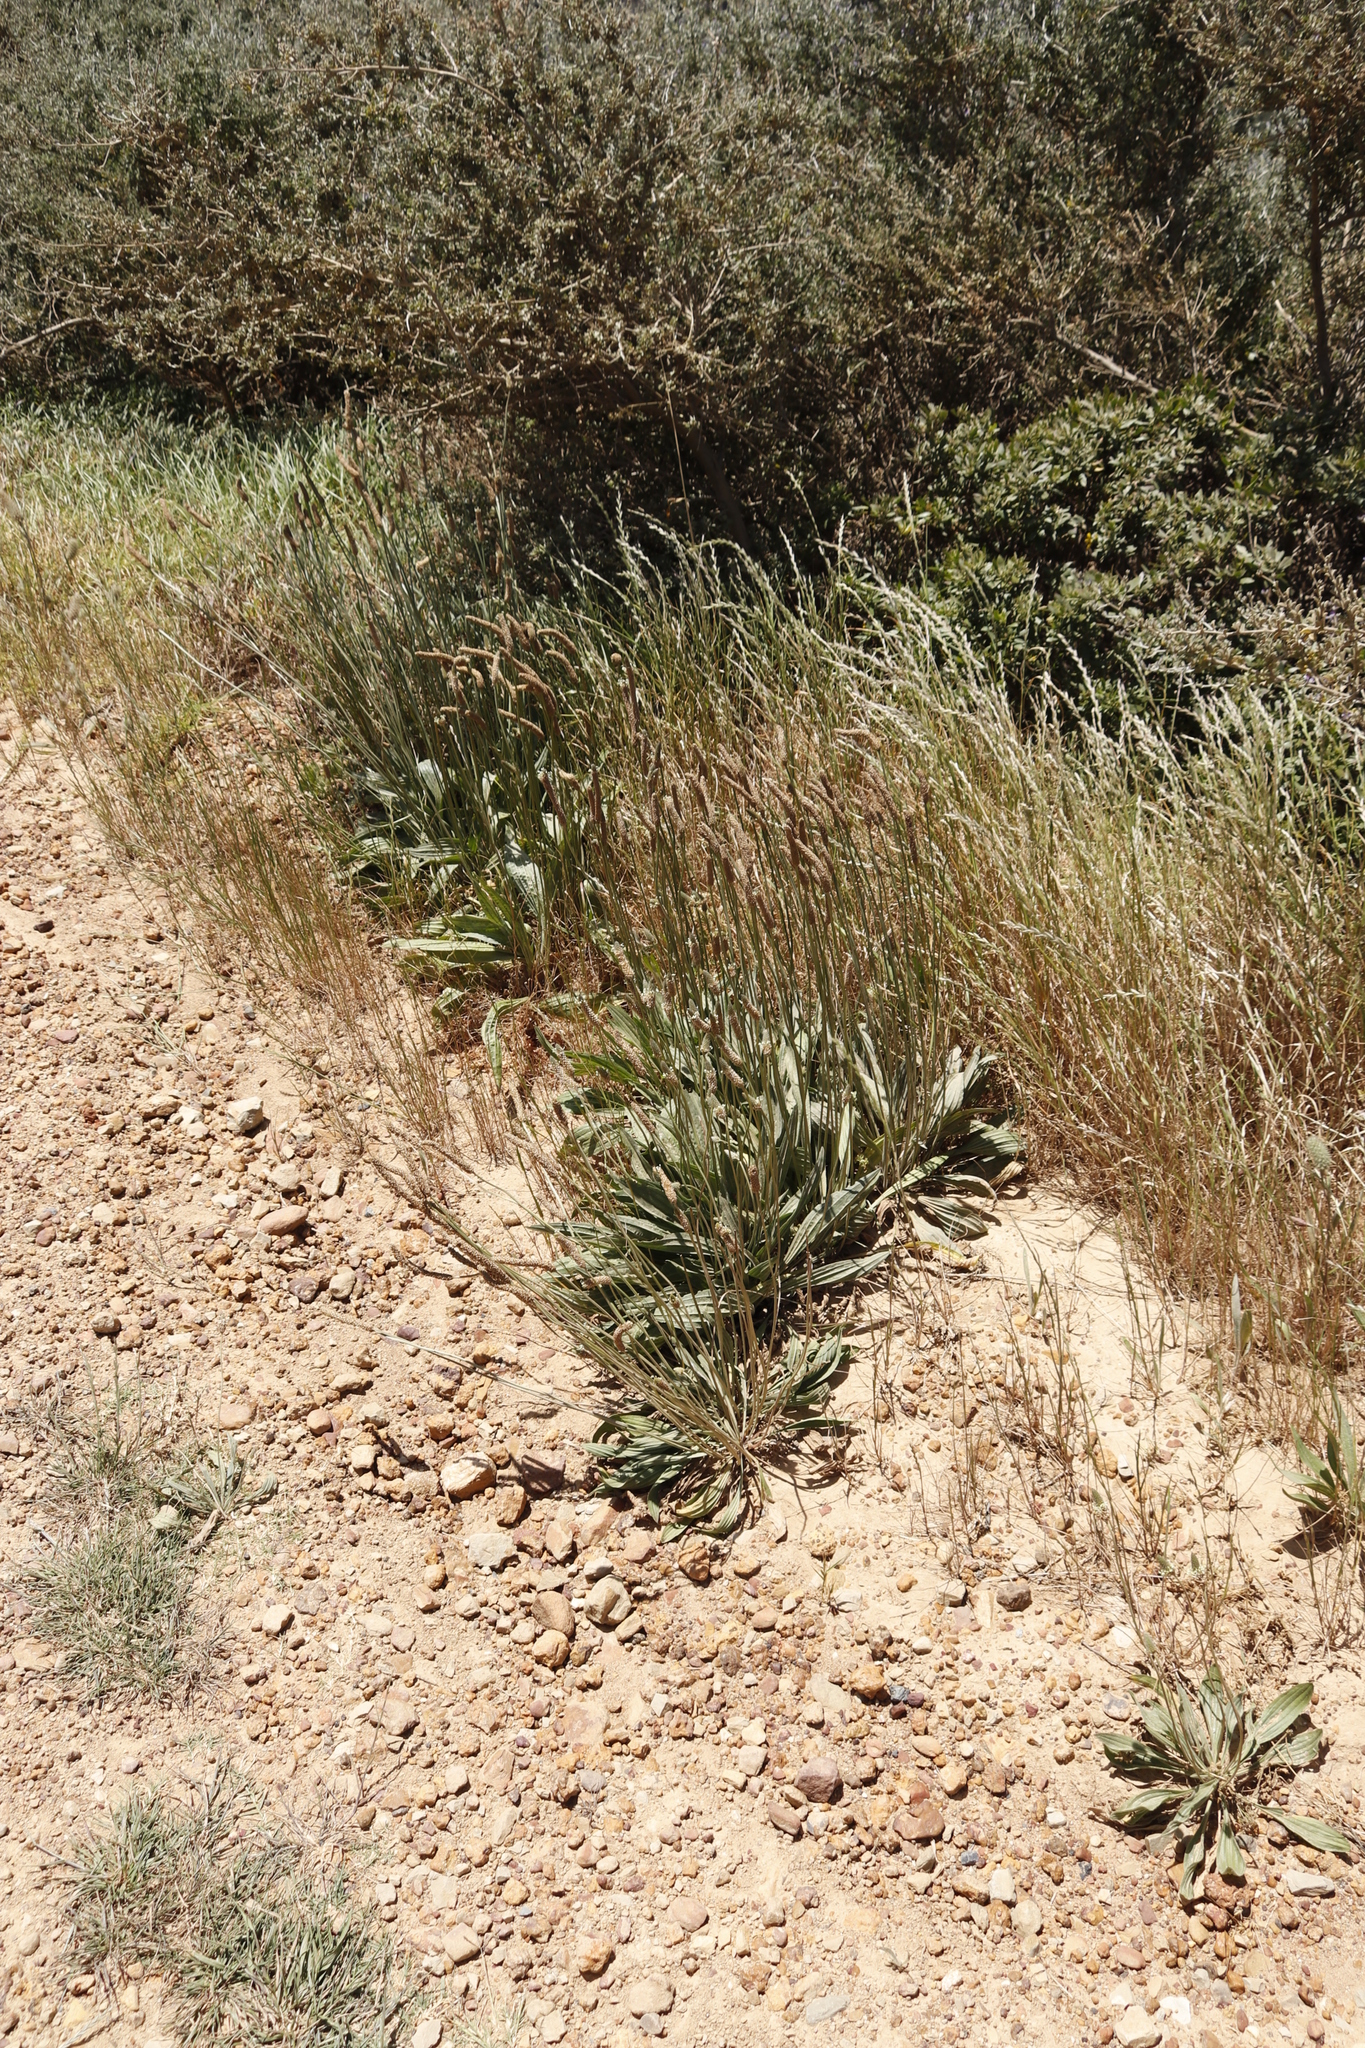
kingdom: Plantae
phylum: Tracheophyta
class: Magnoliopsida
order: Lamiales
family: Plantaginaceae
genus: Plantago
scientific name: Plantago lanceolata
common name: Ribwort plantain
